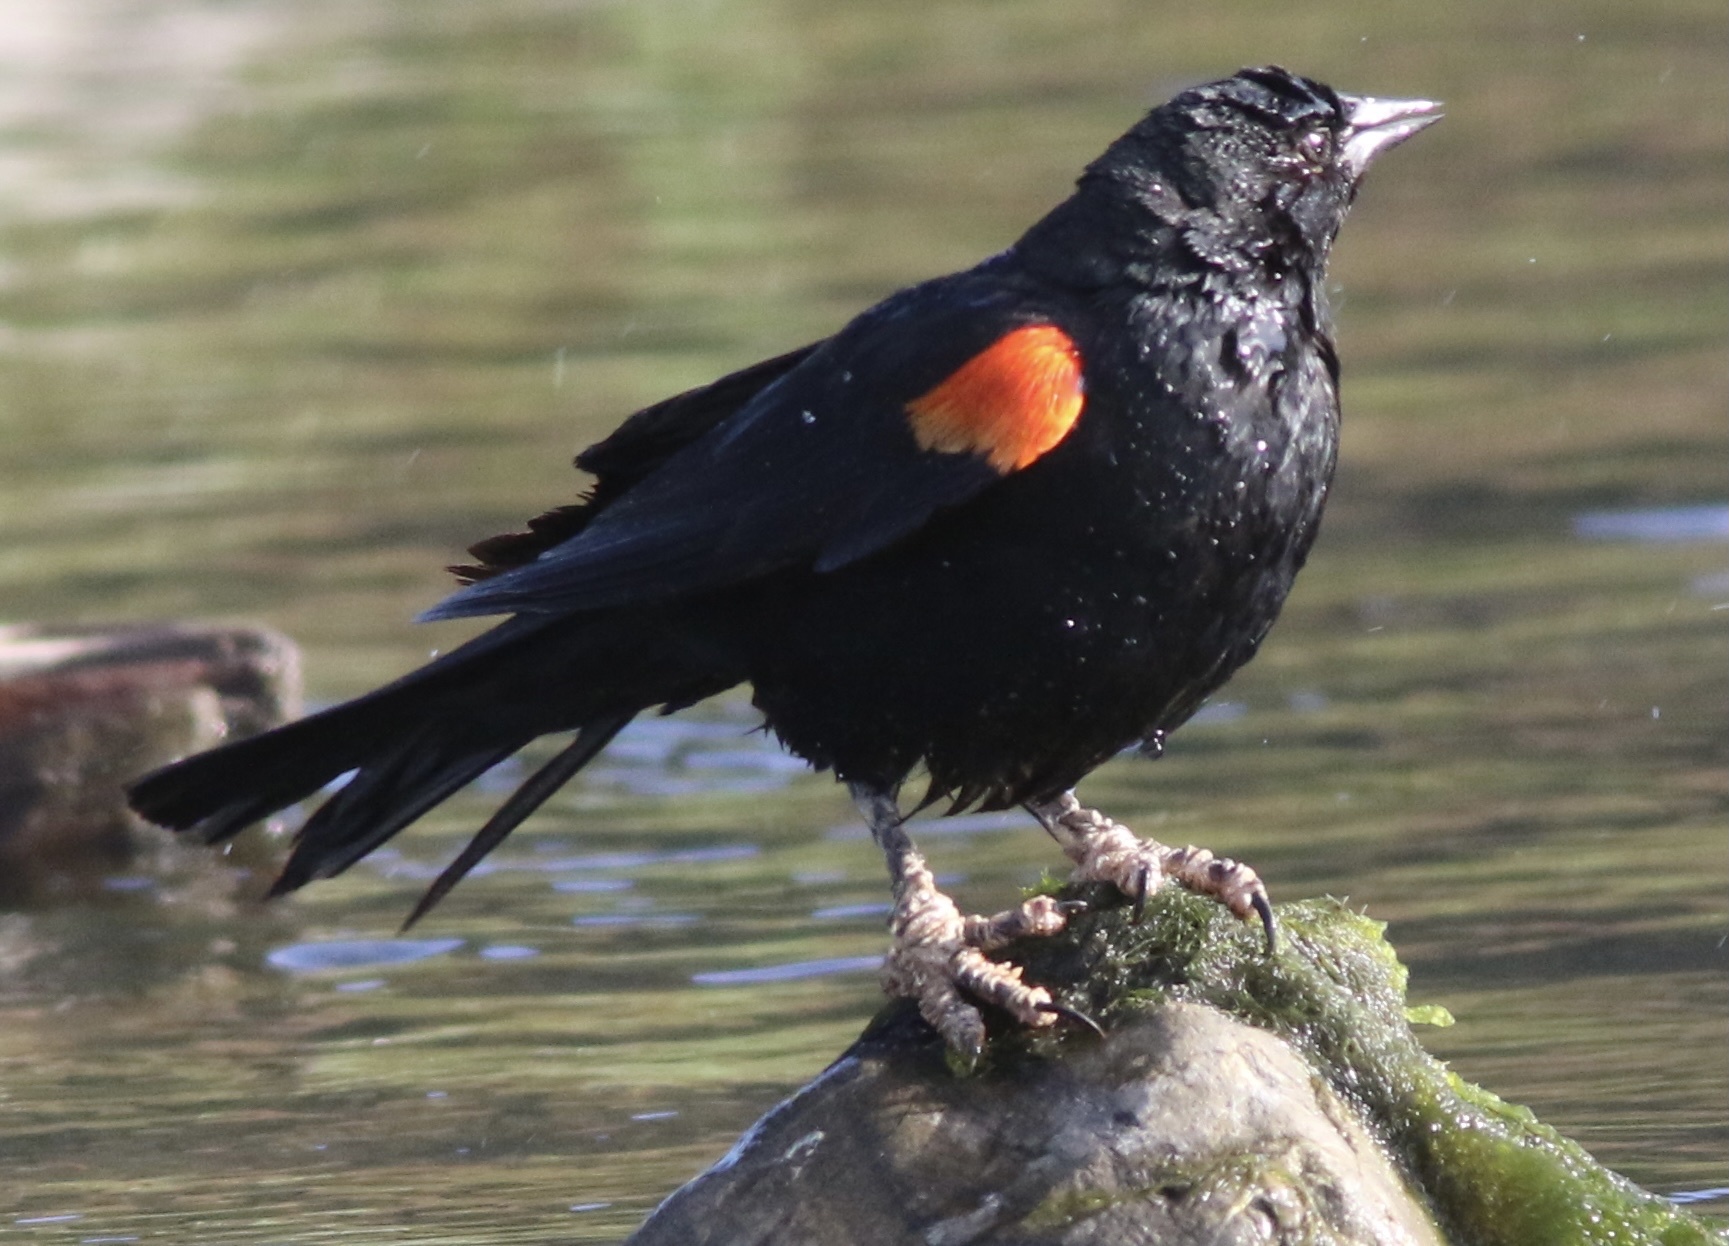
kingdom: Animalia
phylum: Chordata
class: Aves
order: Passeriformes
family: Icteridae
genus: Agelaius
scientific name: Agelaius phoeniceus
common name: Red-winged blackbird
